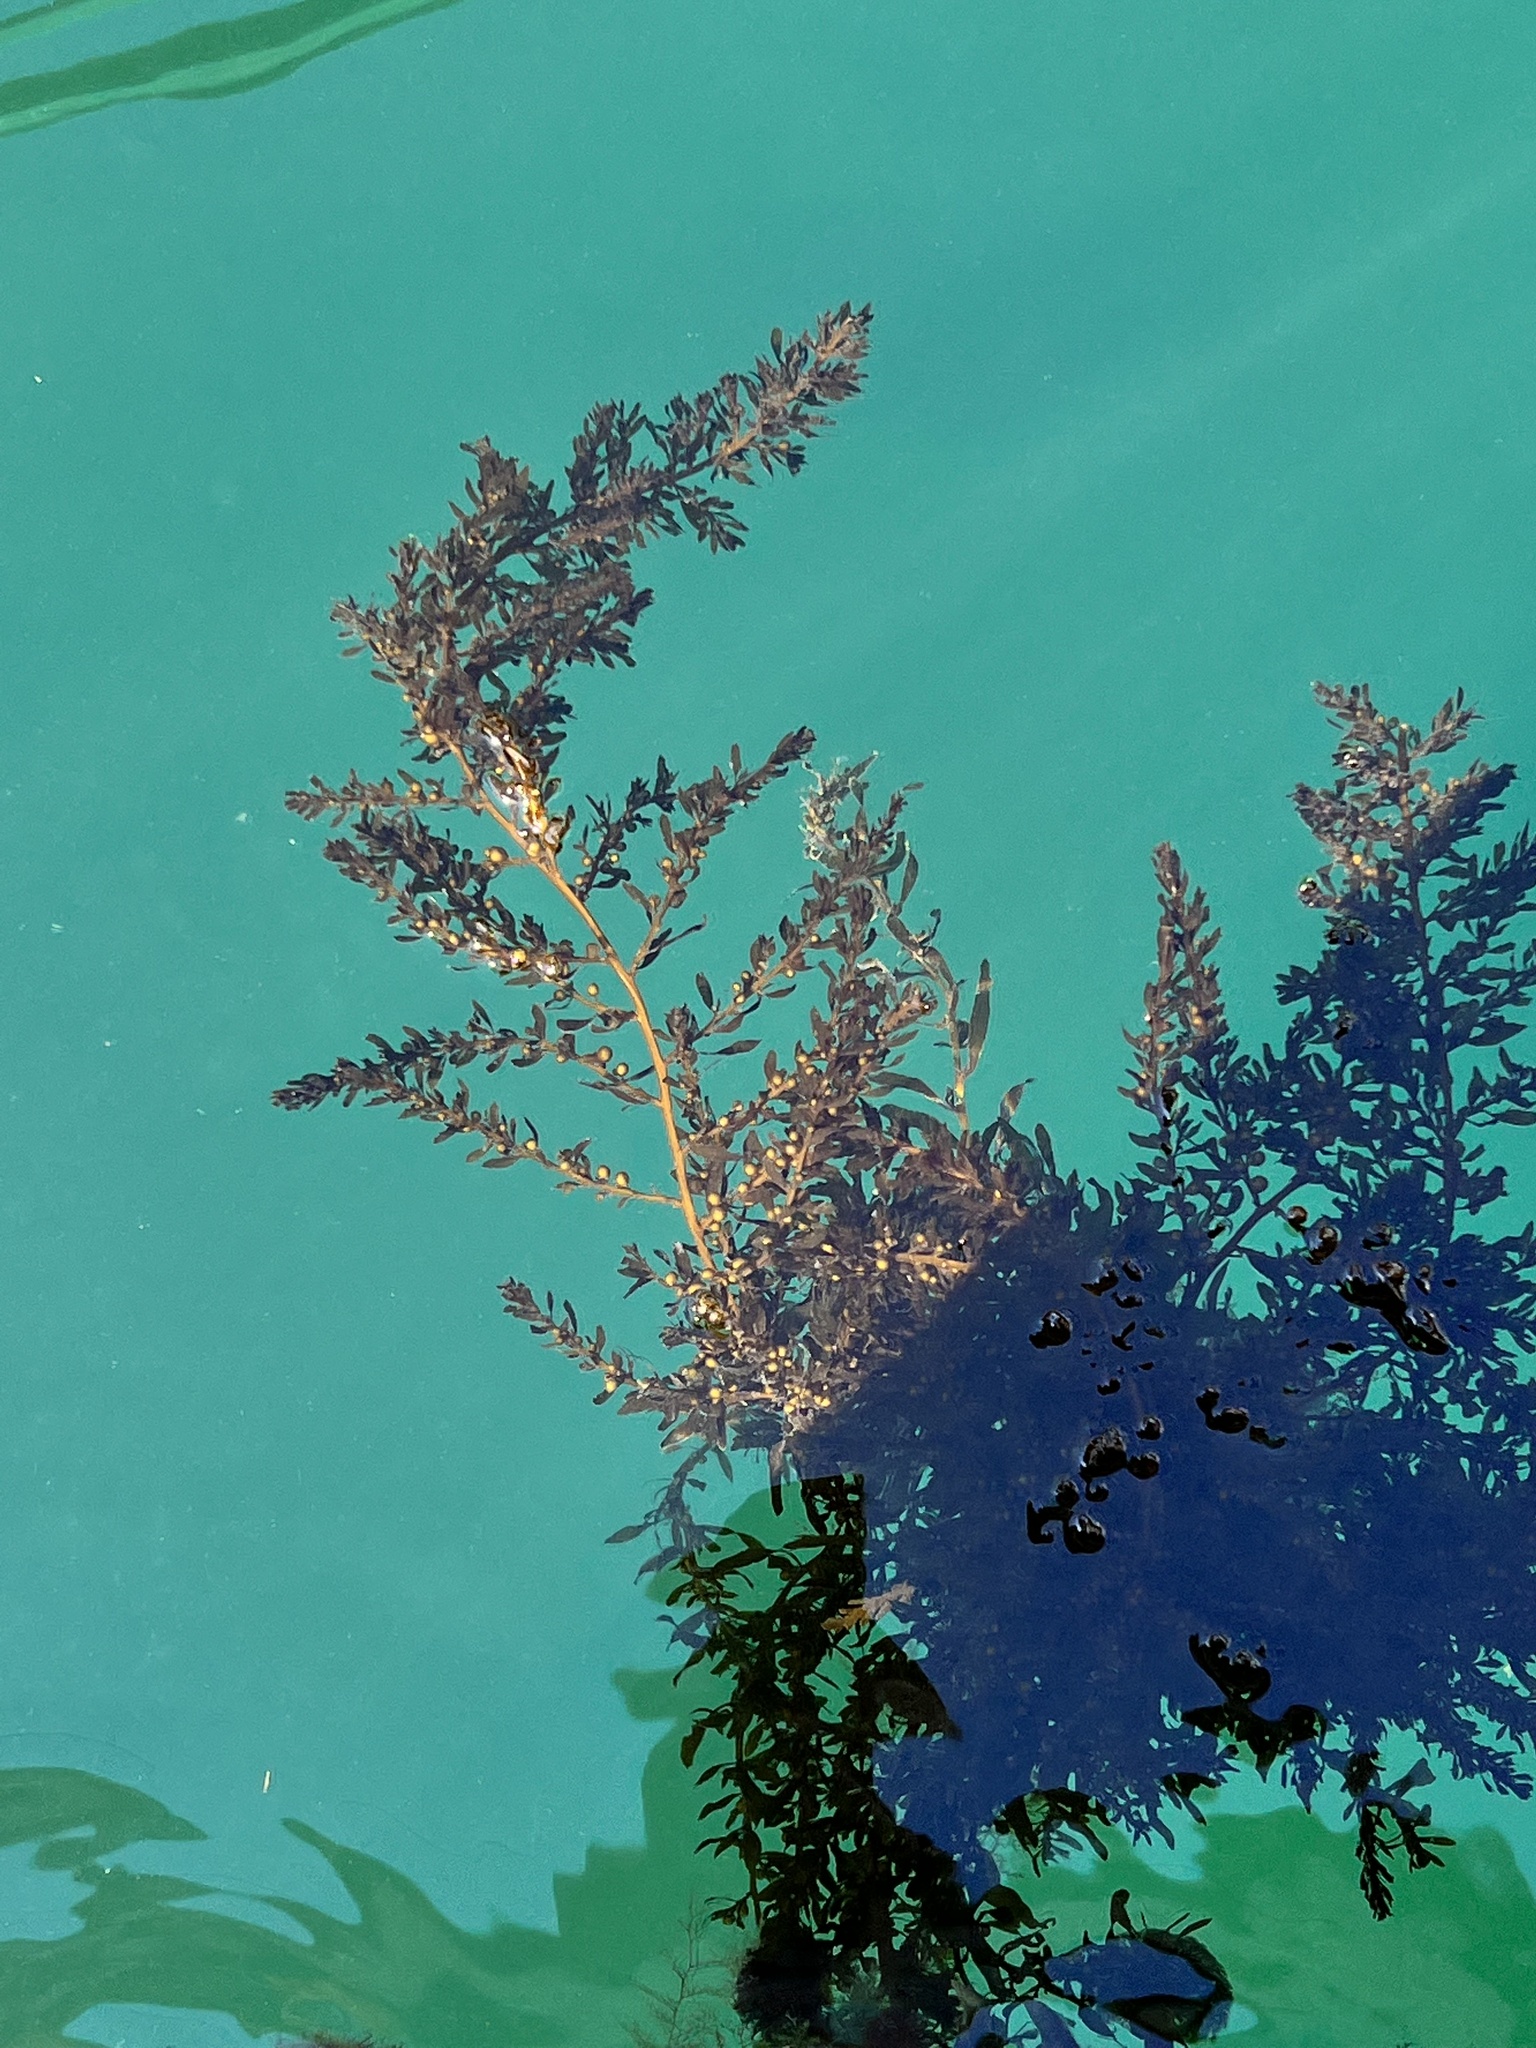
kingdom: Chromista
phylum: Ochrophyta
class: Phaeophyceae
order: Fucales
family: Sargassaceae
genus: Sargassum
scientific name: Sargassum muticum
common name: Japweed
